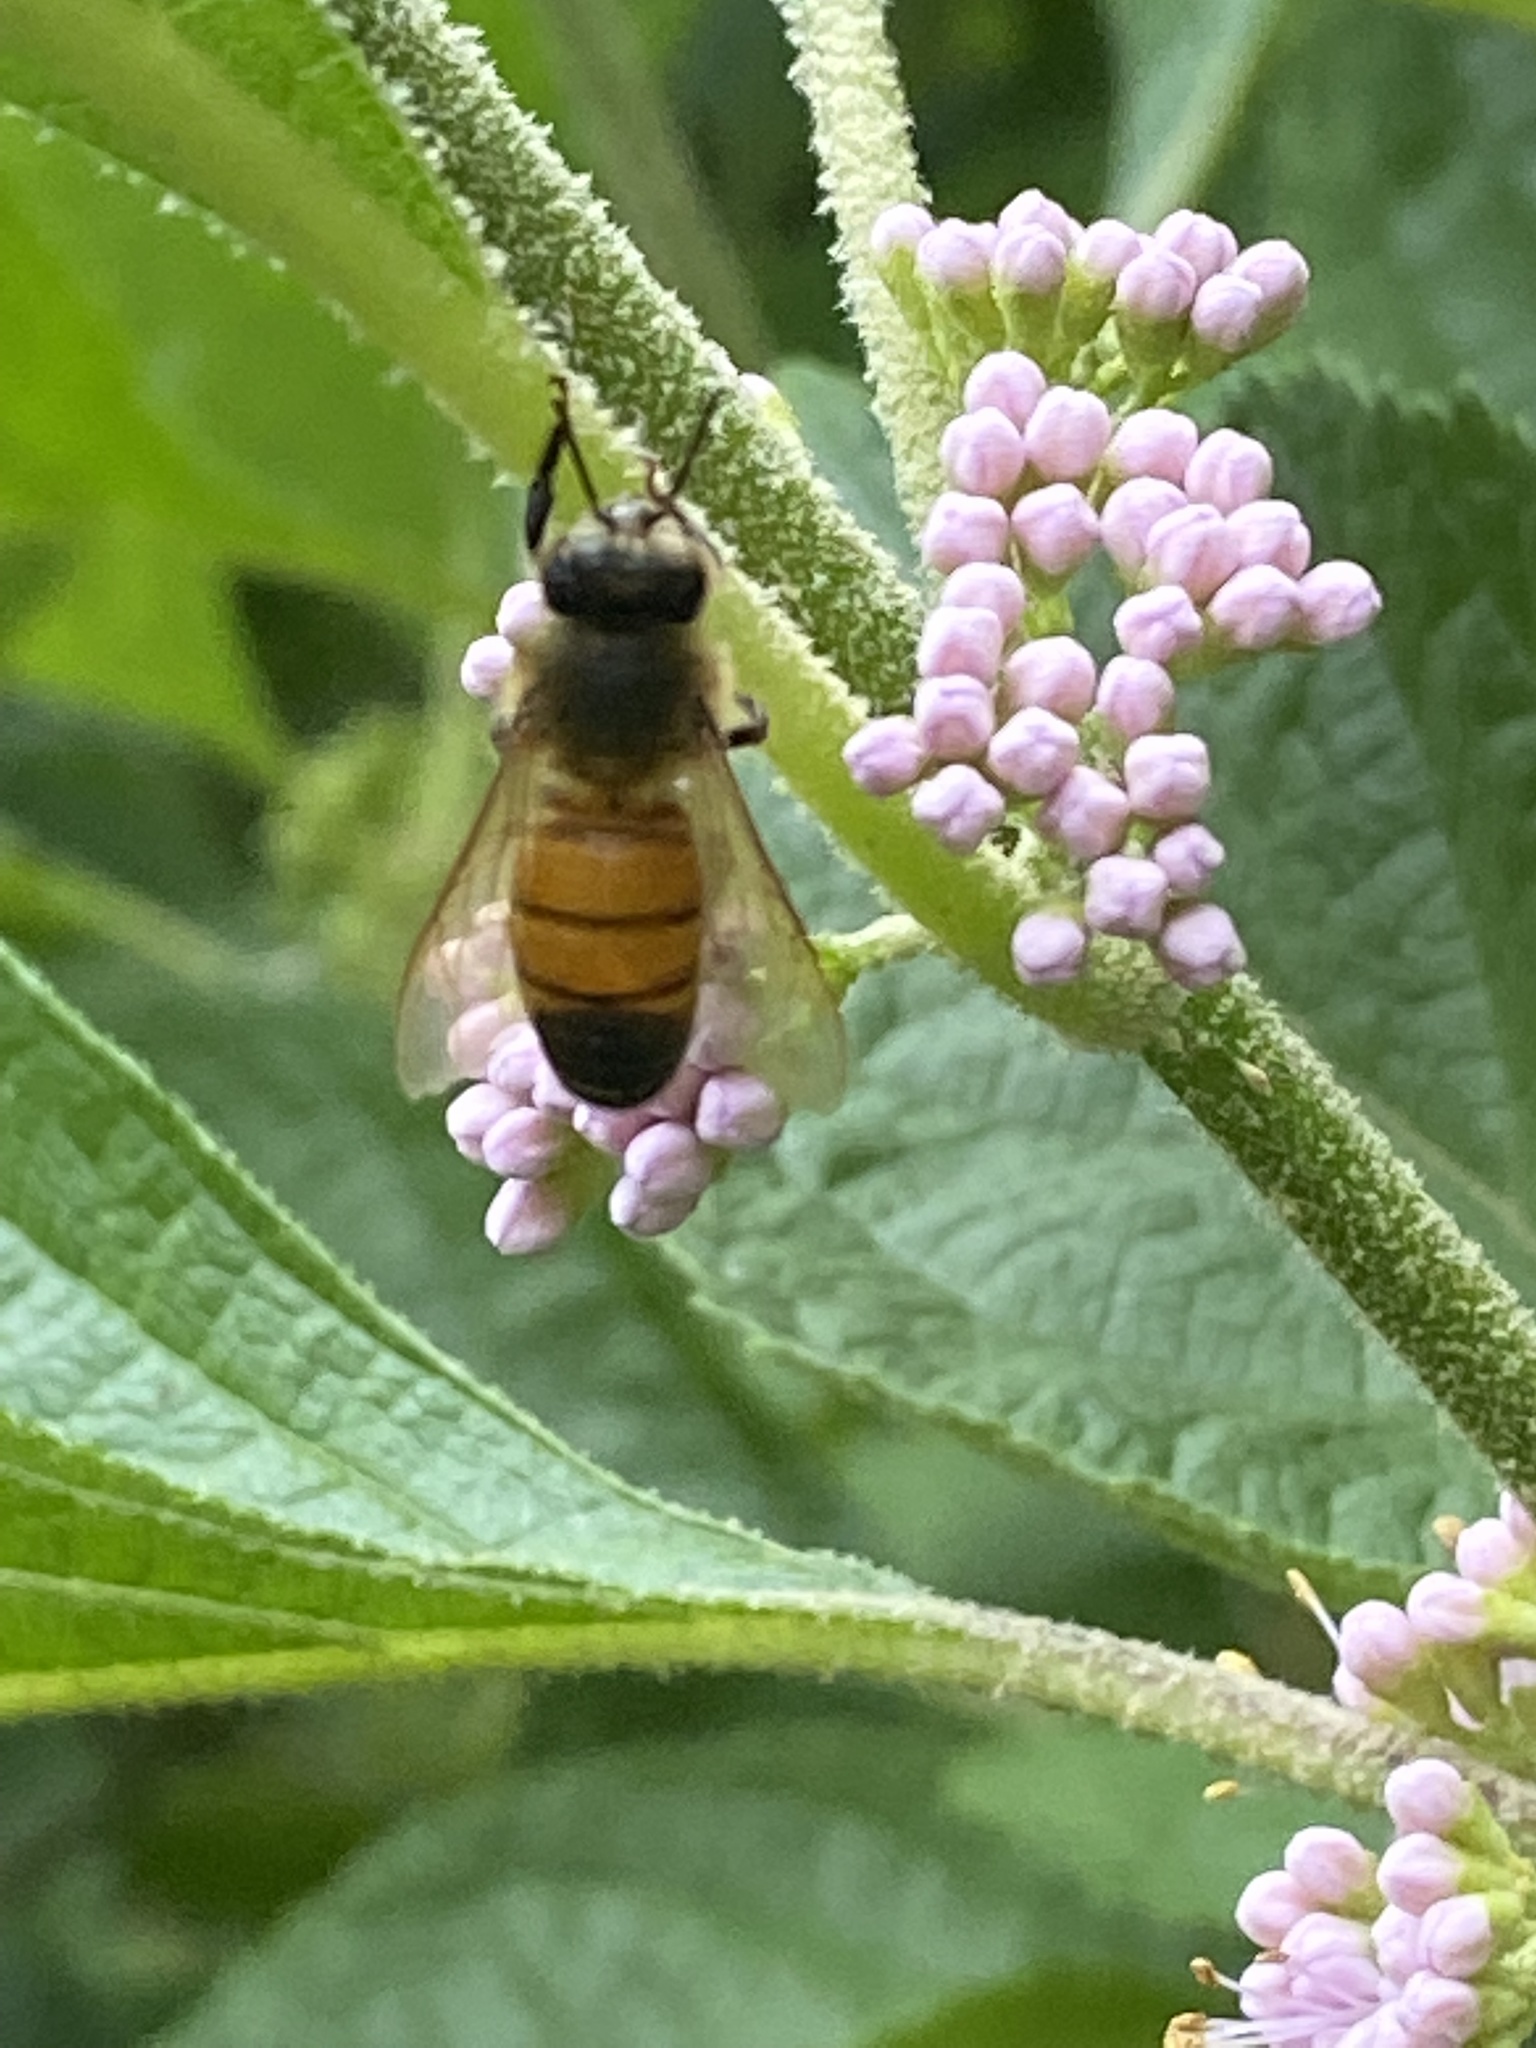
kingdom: Animalia
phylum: Arthropoda
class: Insecta
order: Hymenoptera
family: Apidae
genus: Apis
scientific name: Apis mellifera
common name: Honey bee
